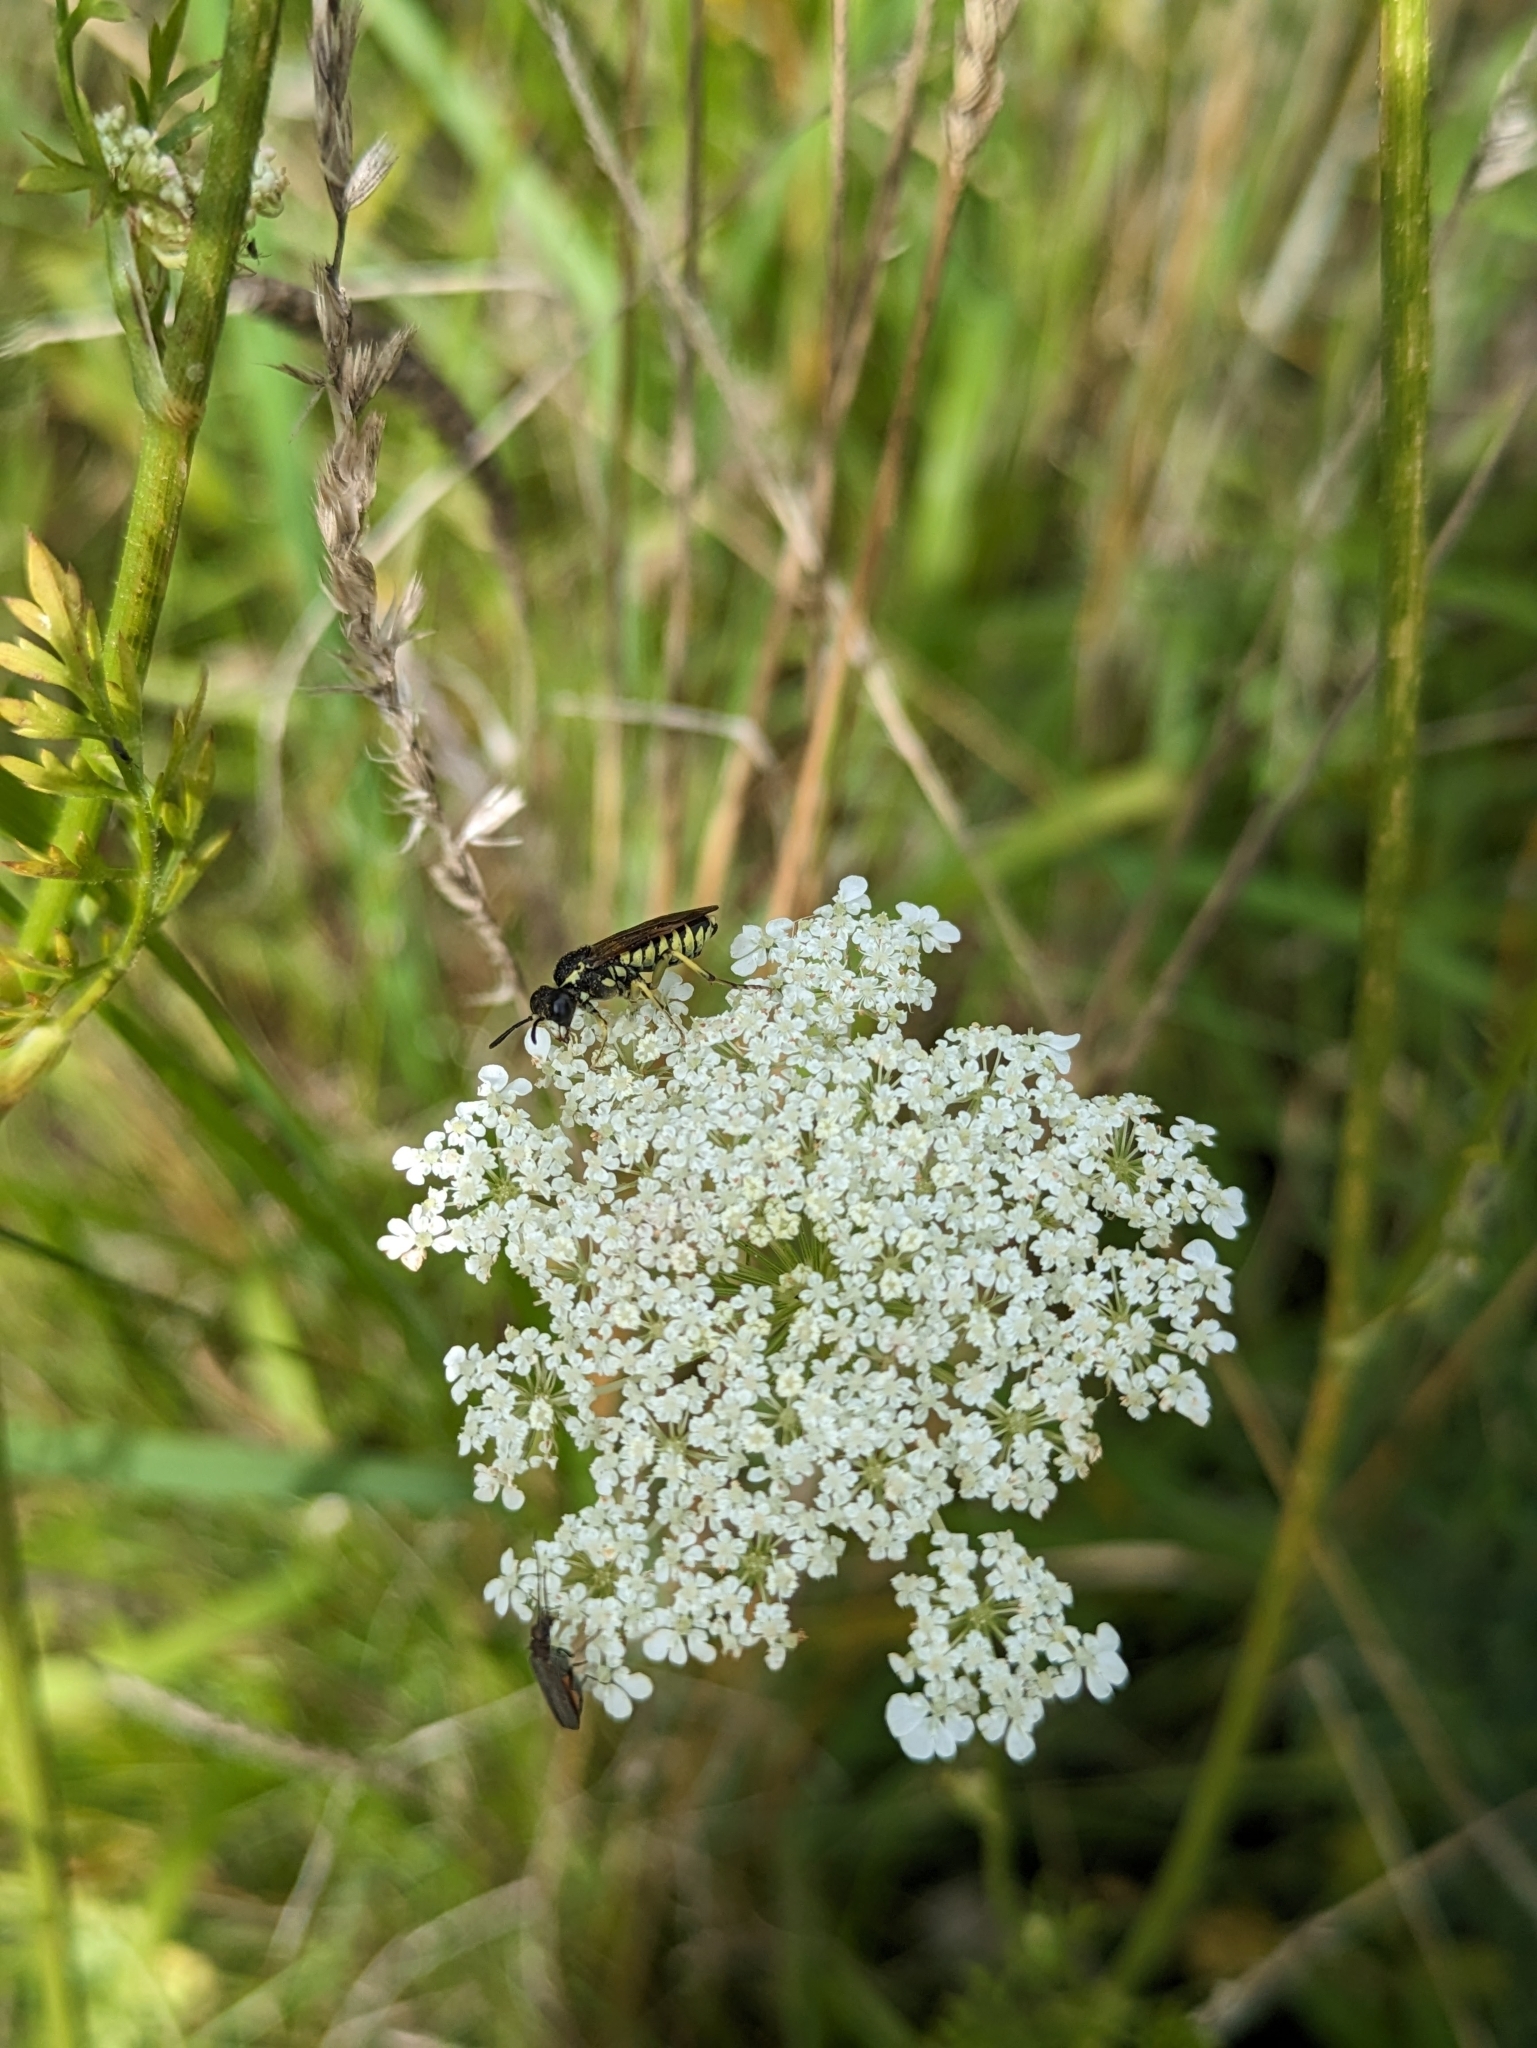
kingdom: Animalia
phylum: Arthropoda
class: Insecta
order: Hymenoptera
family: Tenthredinidae
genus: Tenthredo
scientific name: Tenthredo notha
